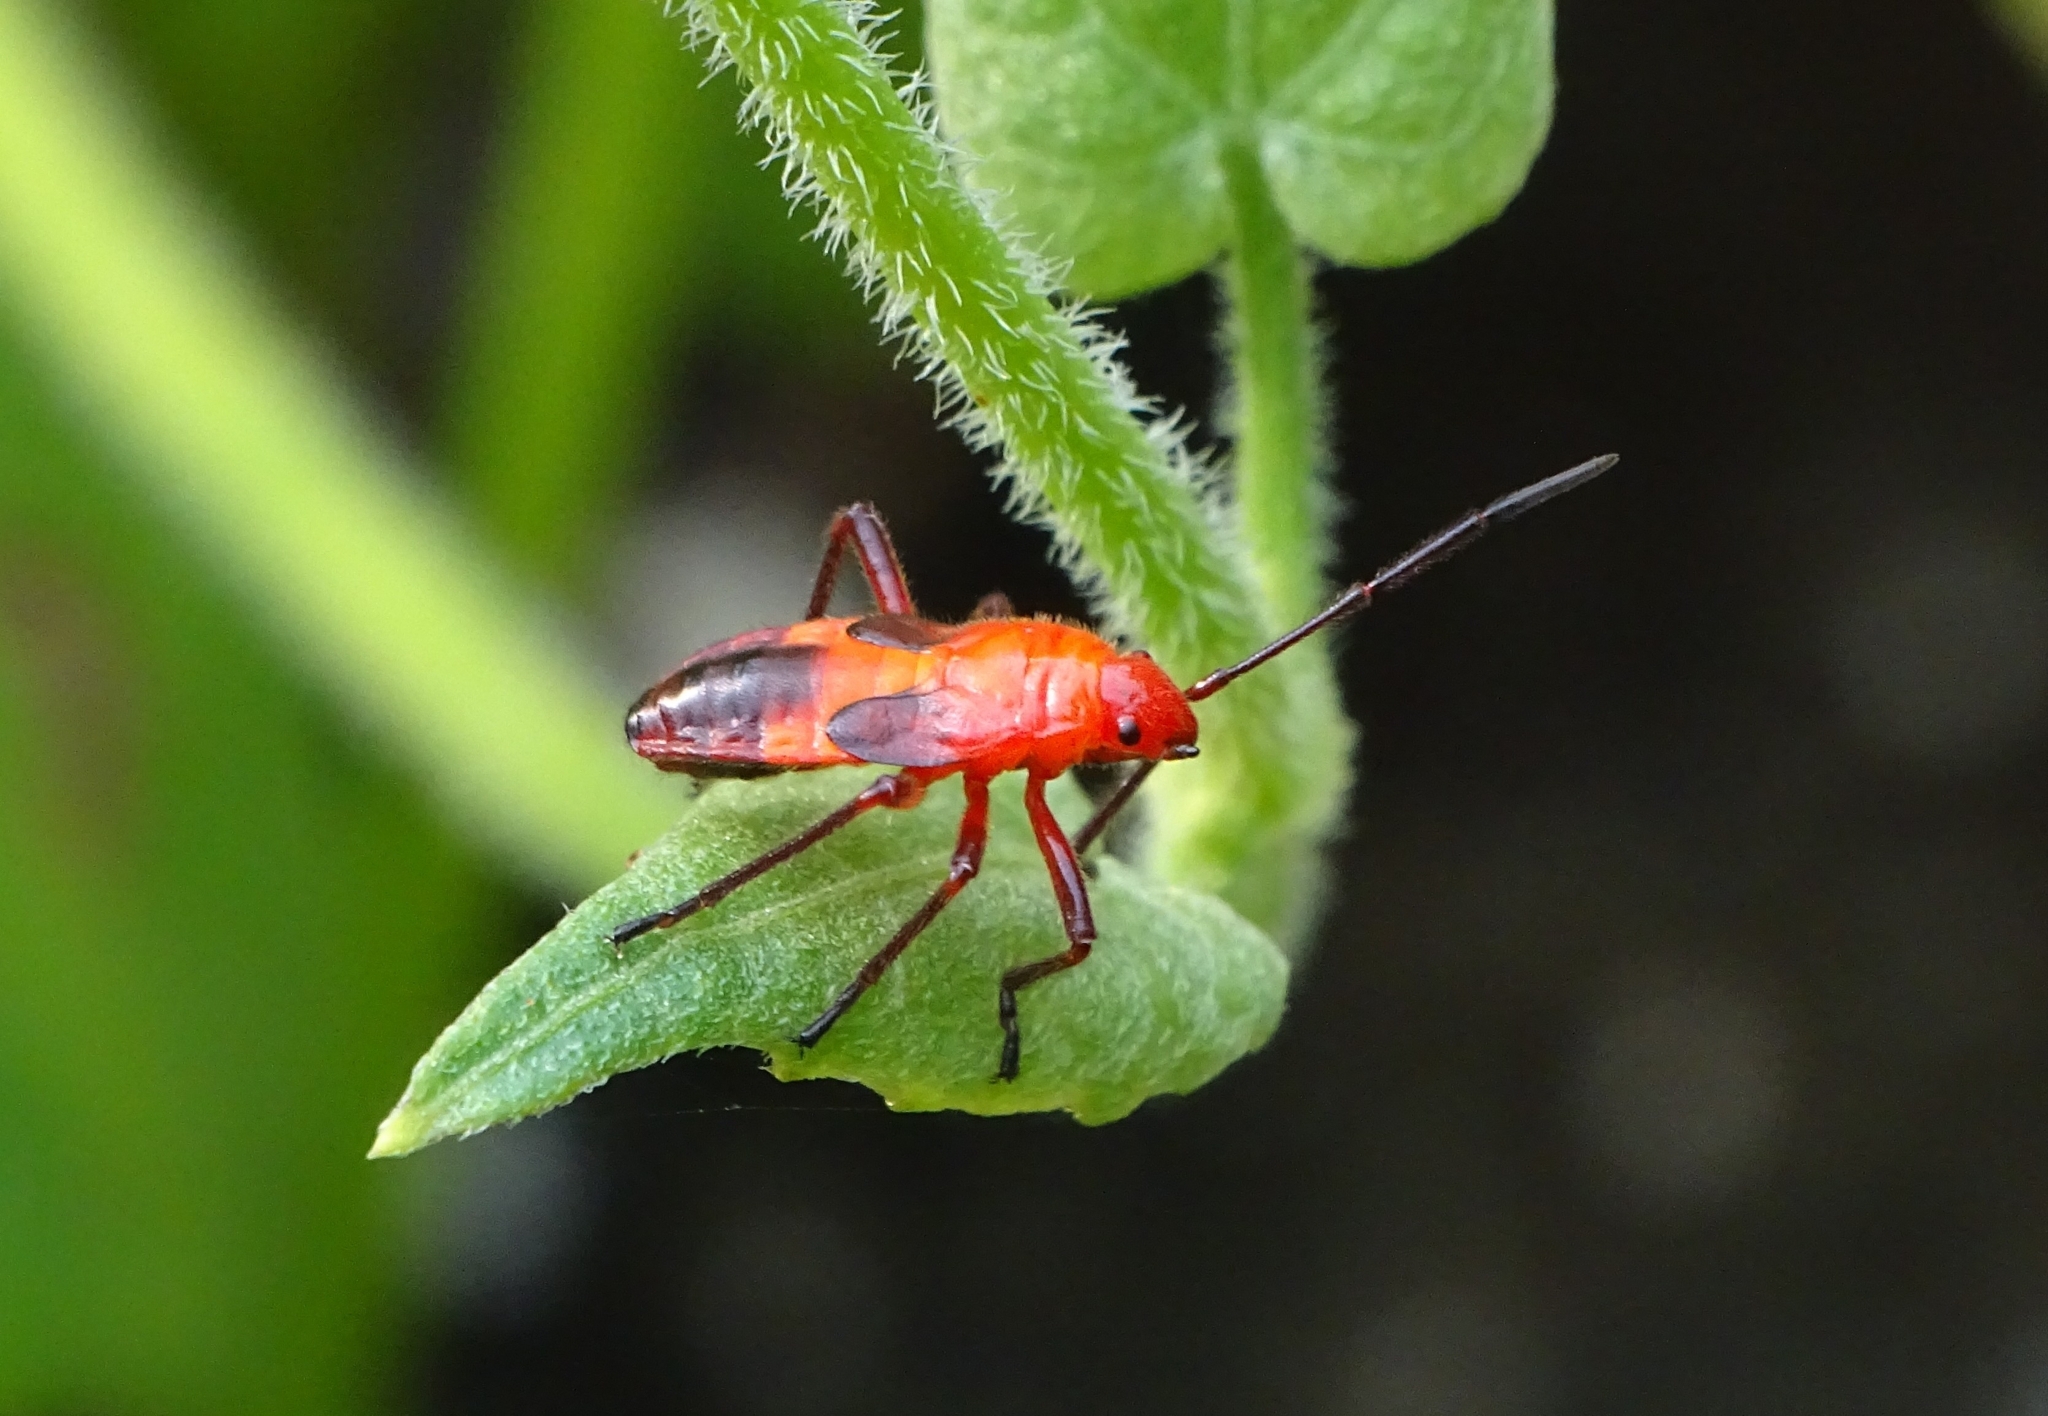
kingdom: Animalia
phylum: Arthropoda
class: Insecta
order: Hemiptera
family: Lygaeidae
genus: Oncopeltus
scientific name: Oncopeltus nigriceps
